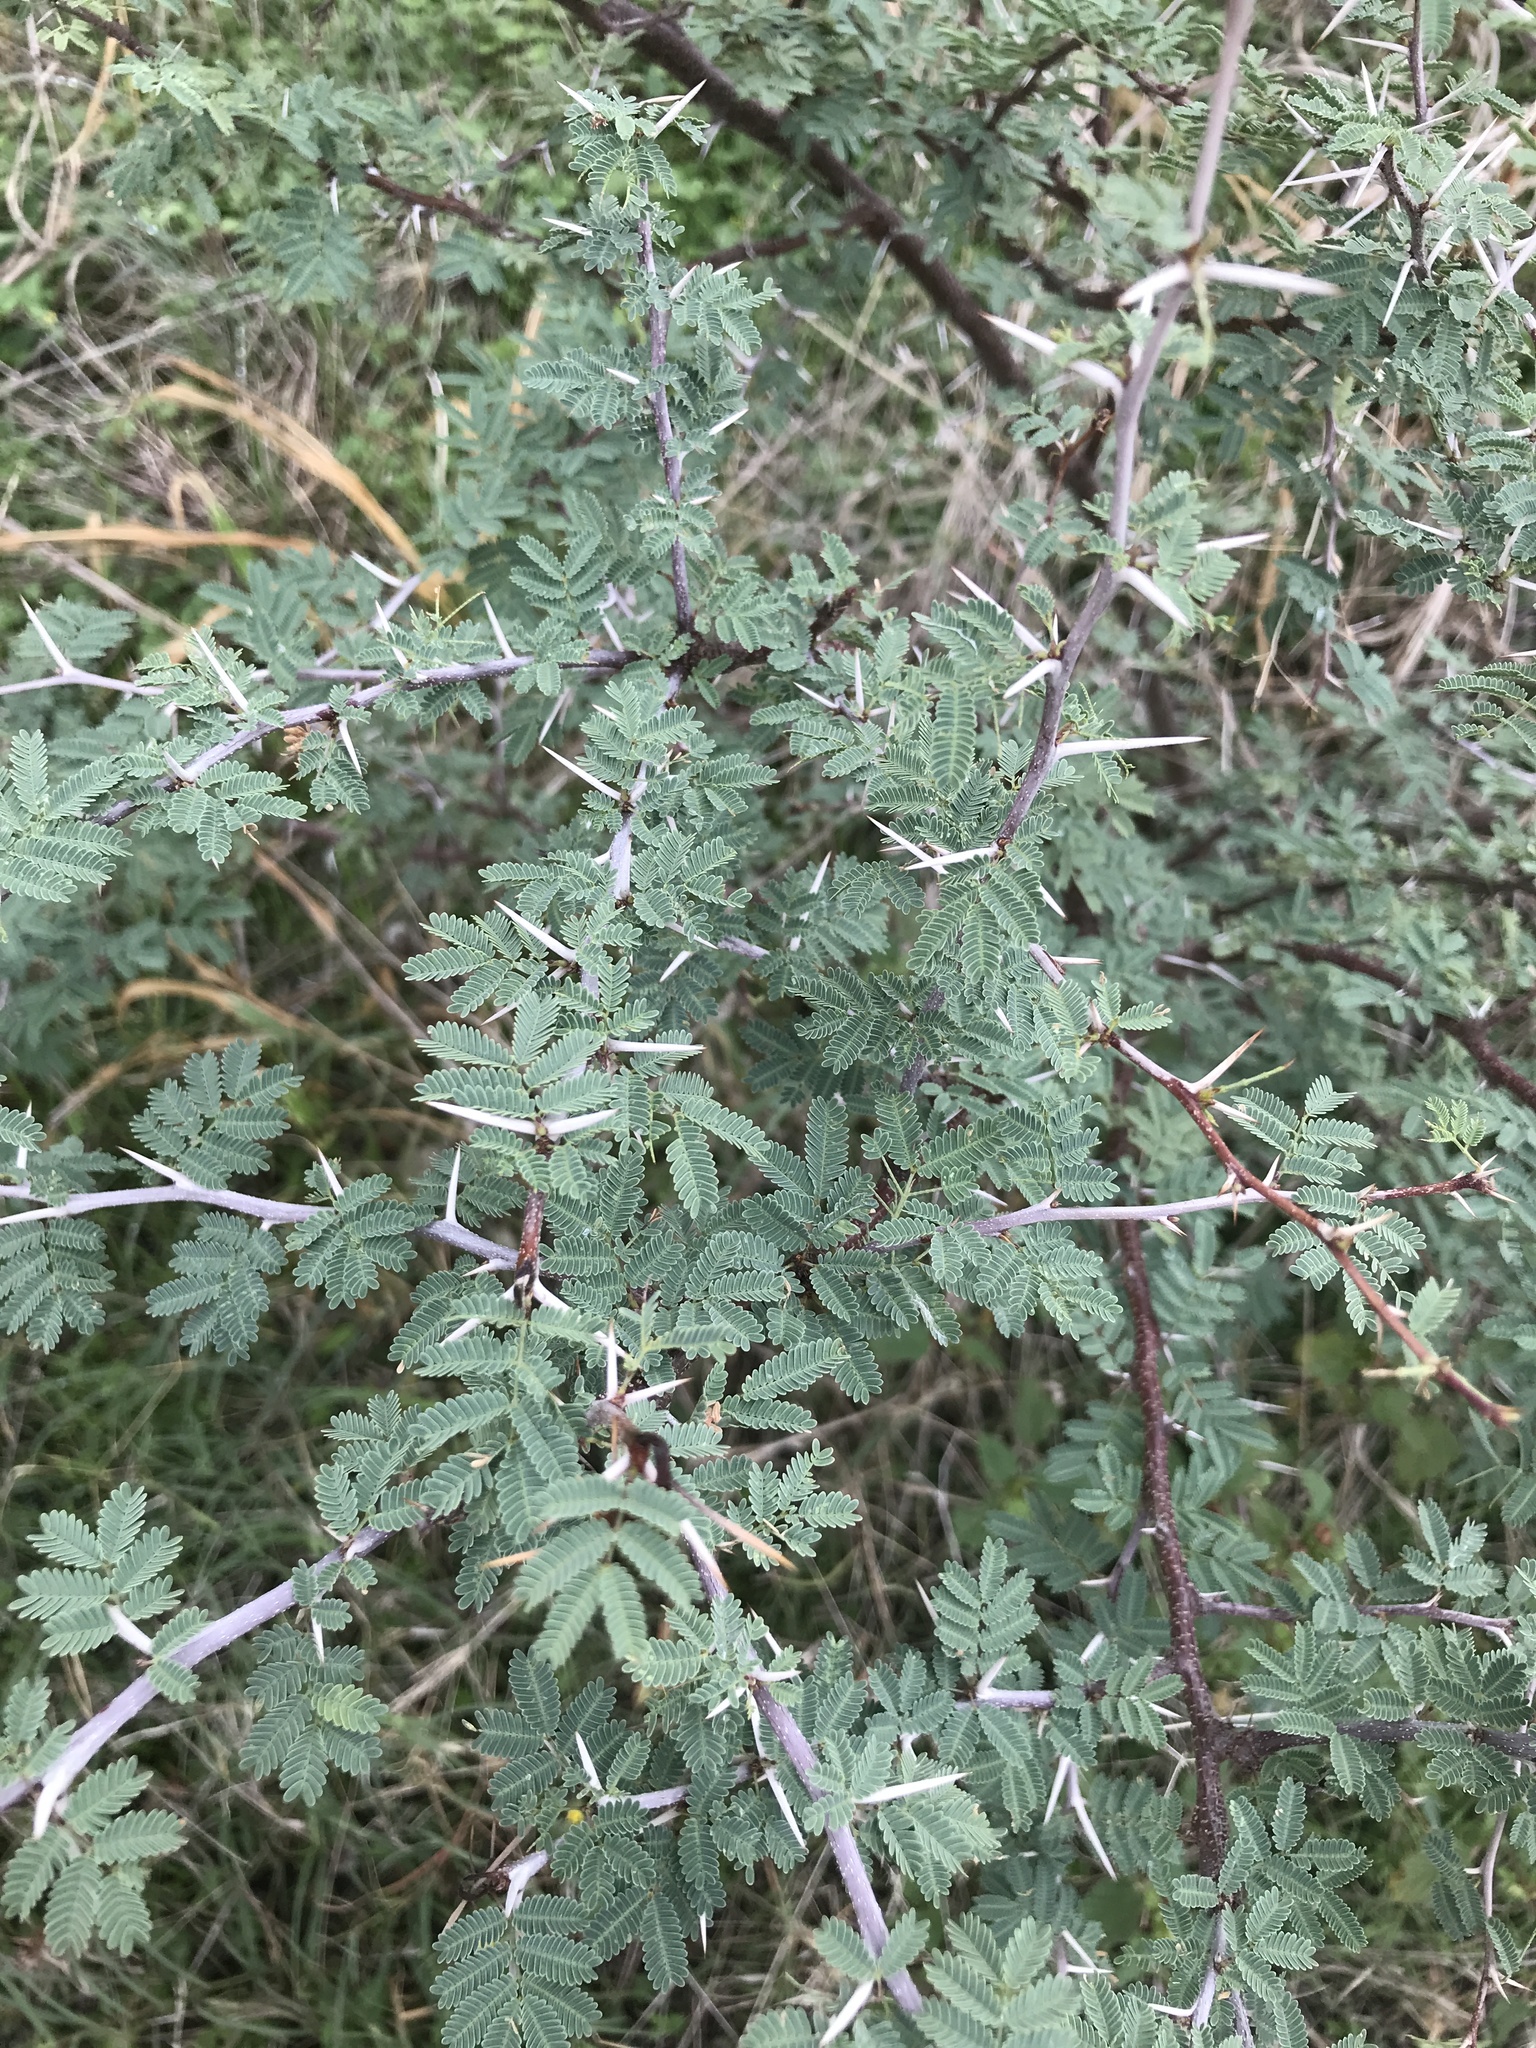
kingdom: Plantae
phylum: Tracheophyta
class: Magnoliopsida
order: Fabales
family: Fabaceae
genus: Vachellia
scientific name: Vachellia farnesiana
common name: Sweet acacia
